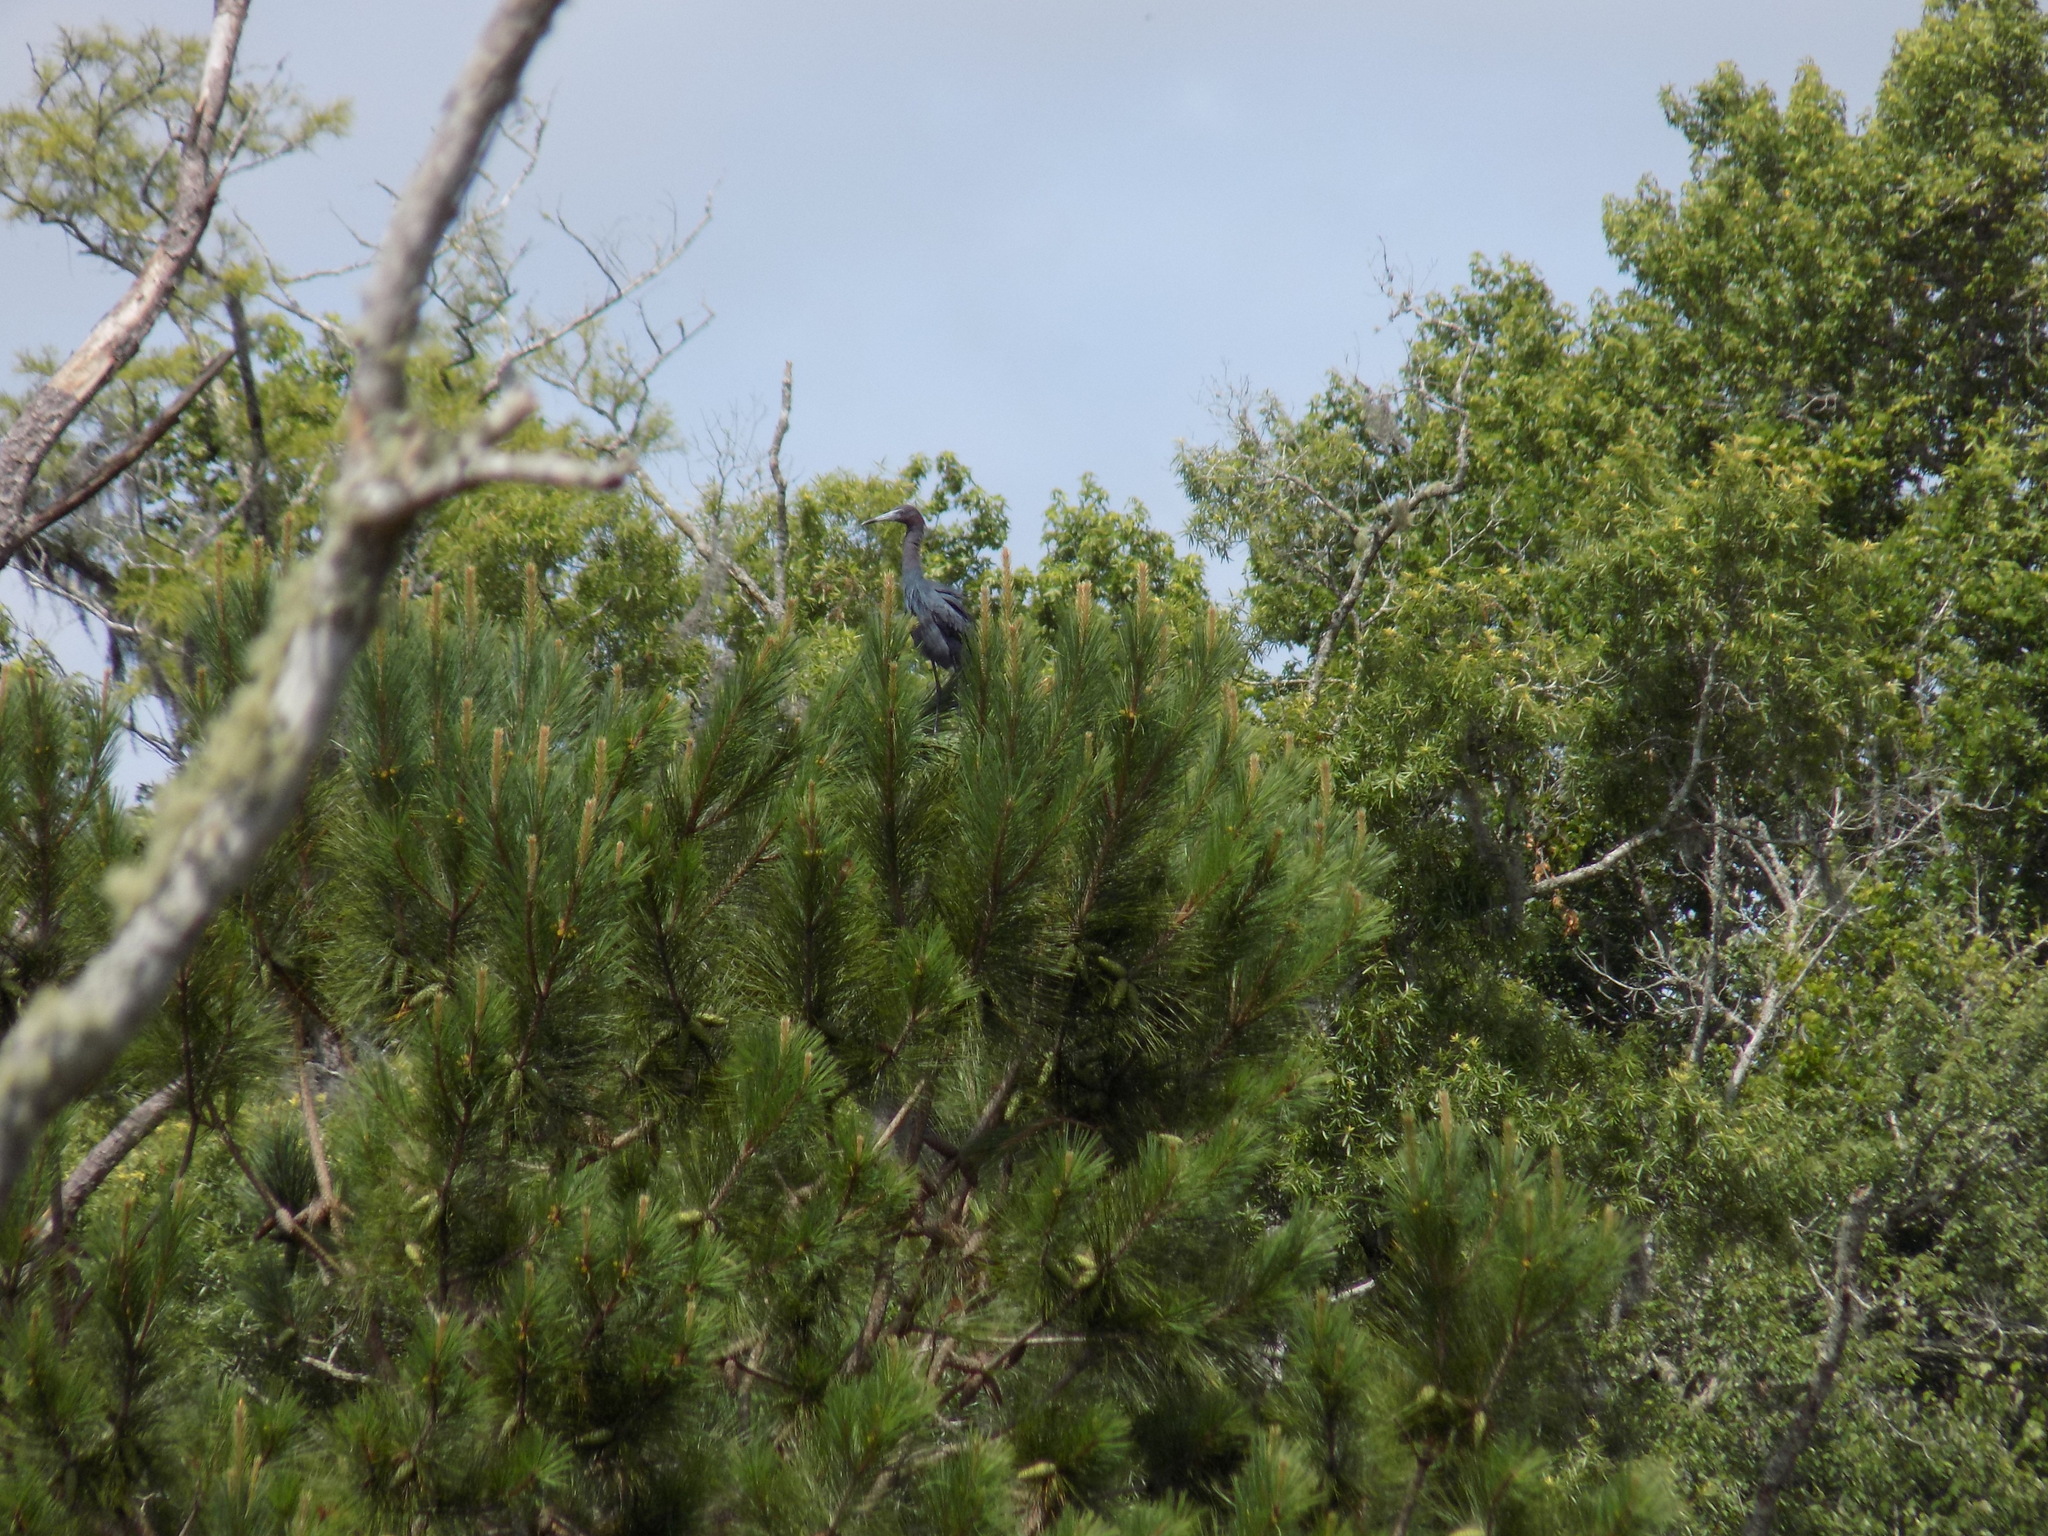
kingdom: Animalia
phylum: Chordata
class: Aves
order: Pelecaniformes
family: Ardeidae
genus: Egretta
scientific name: Egretta caerulea
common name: Little blue heron
